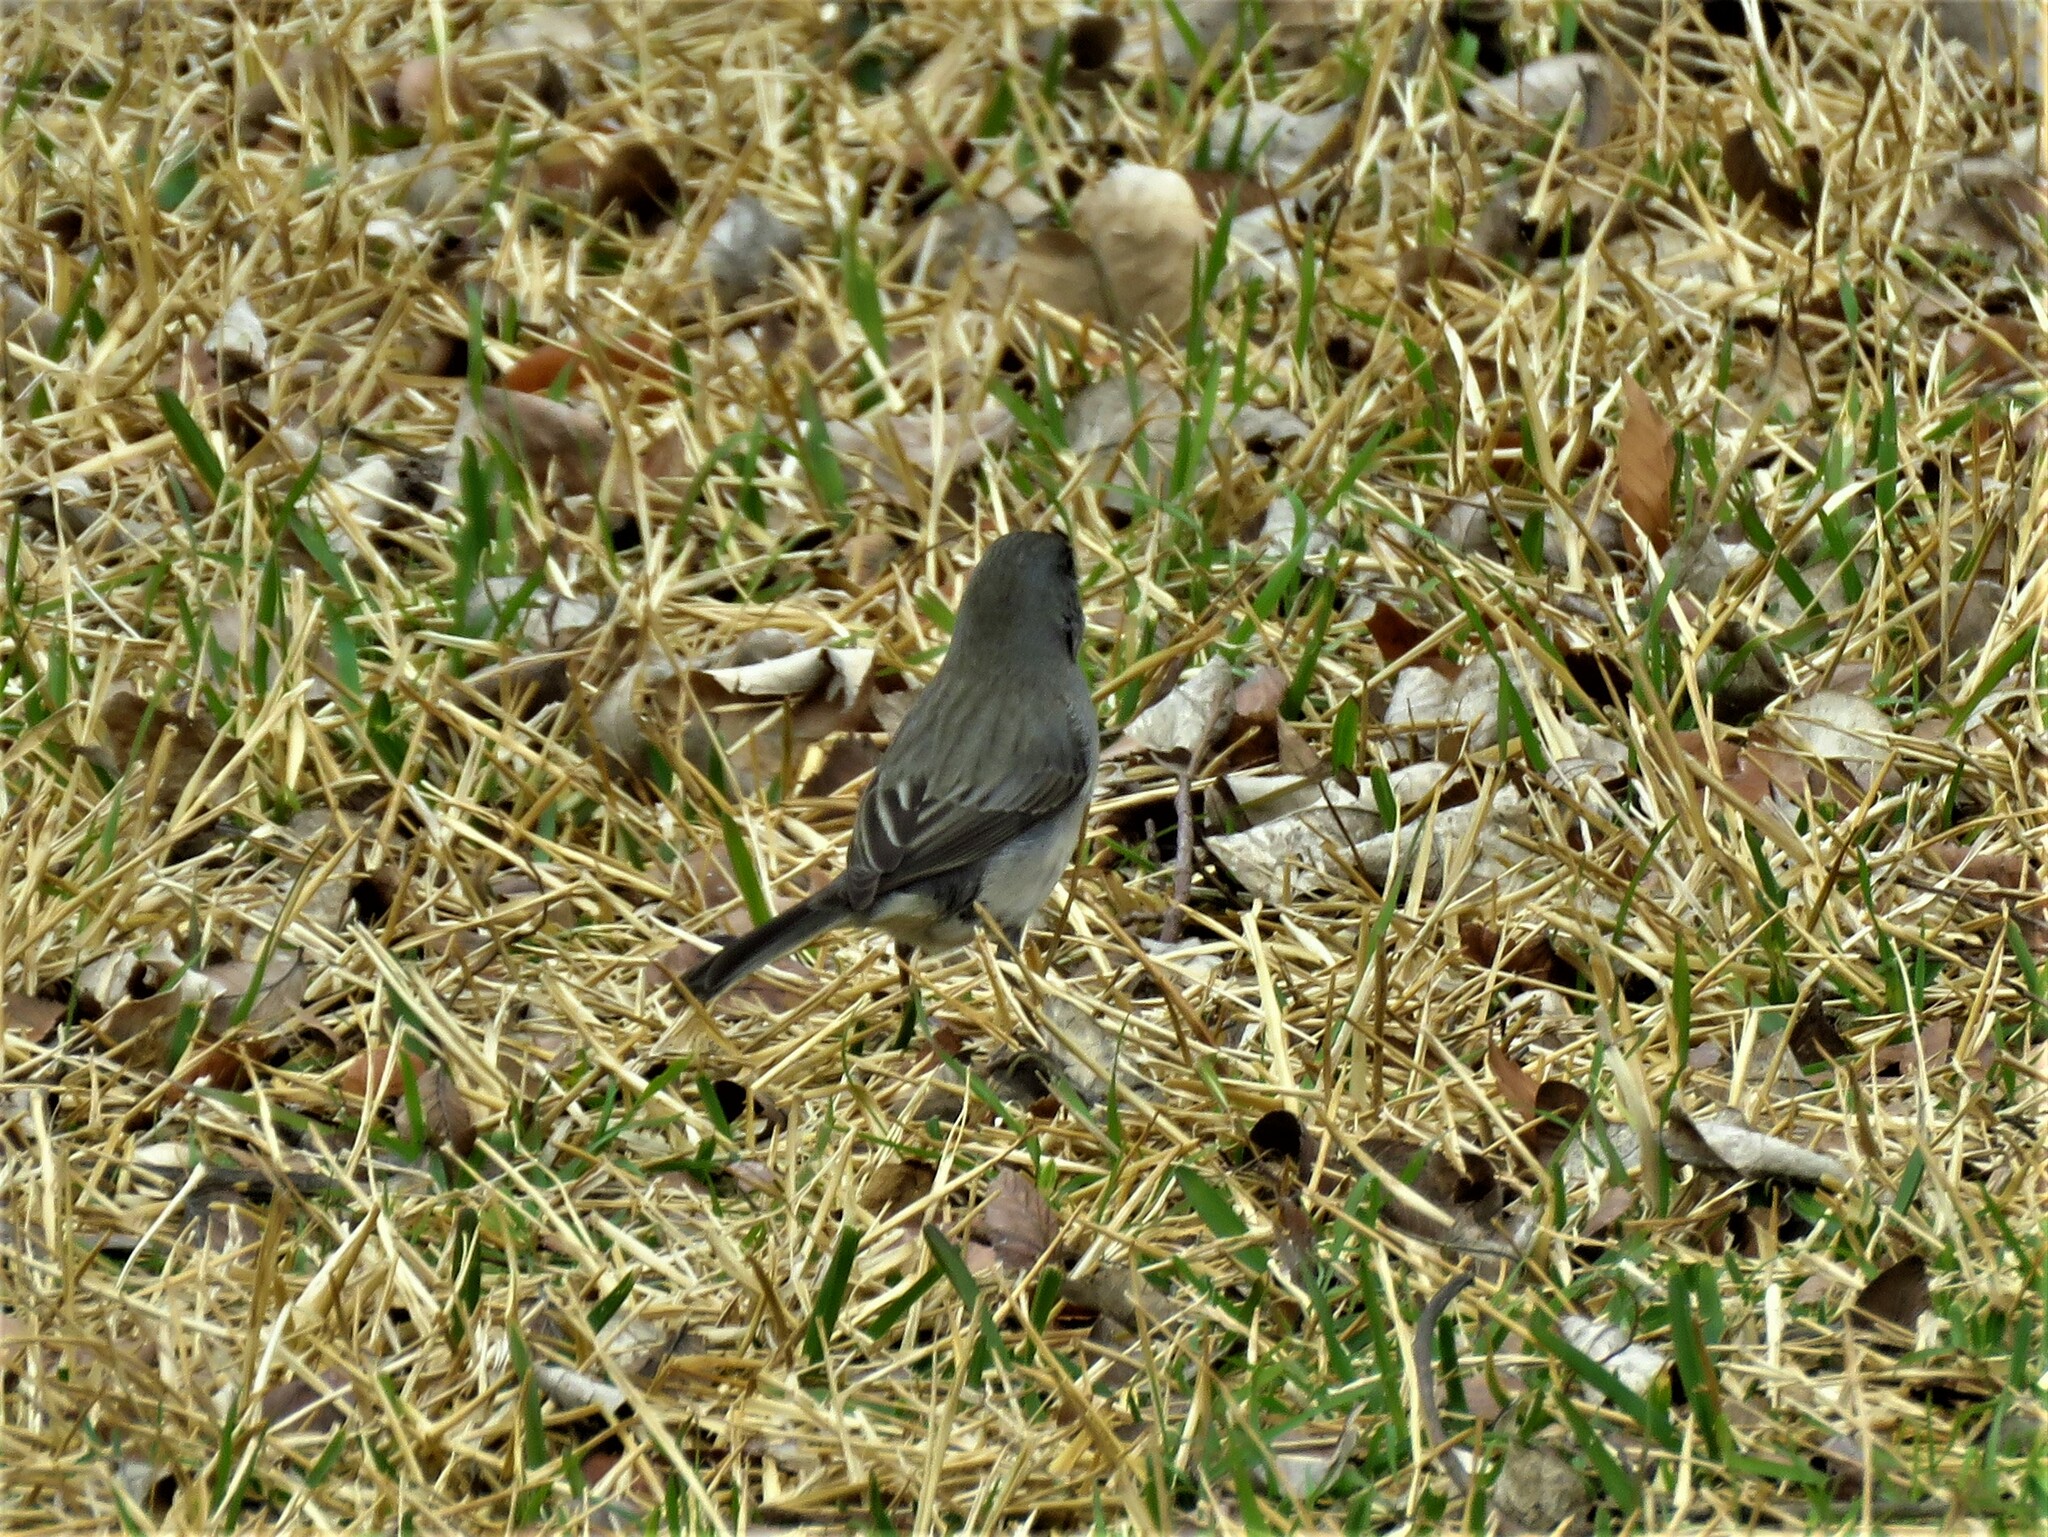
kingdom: Animalia
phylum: Chordata
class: Aves
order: Passeriformes
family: Passerellidae
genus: Junco
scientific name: Junco hyemalis
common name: Dark-eyed junco
